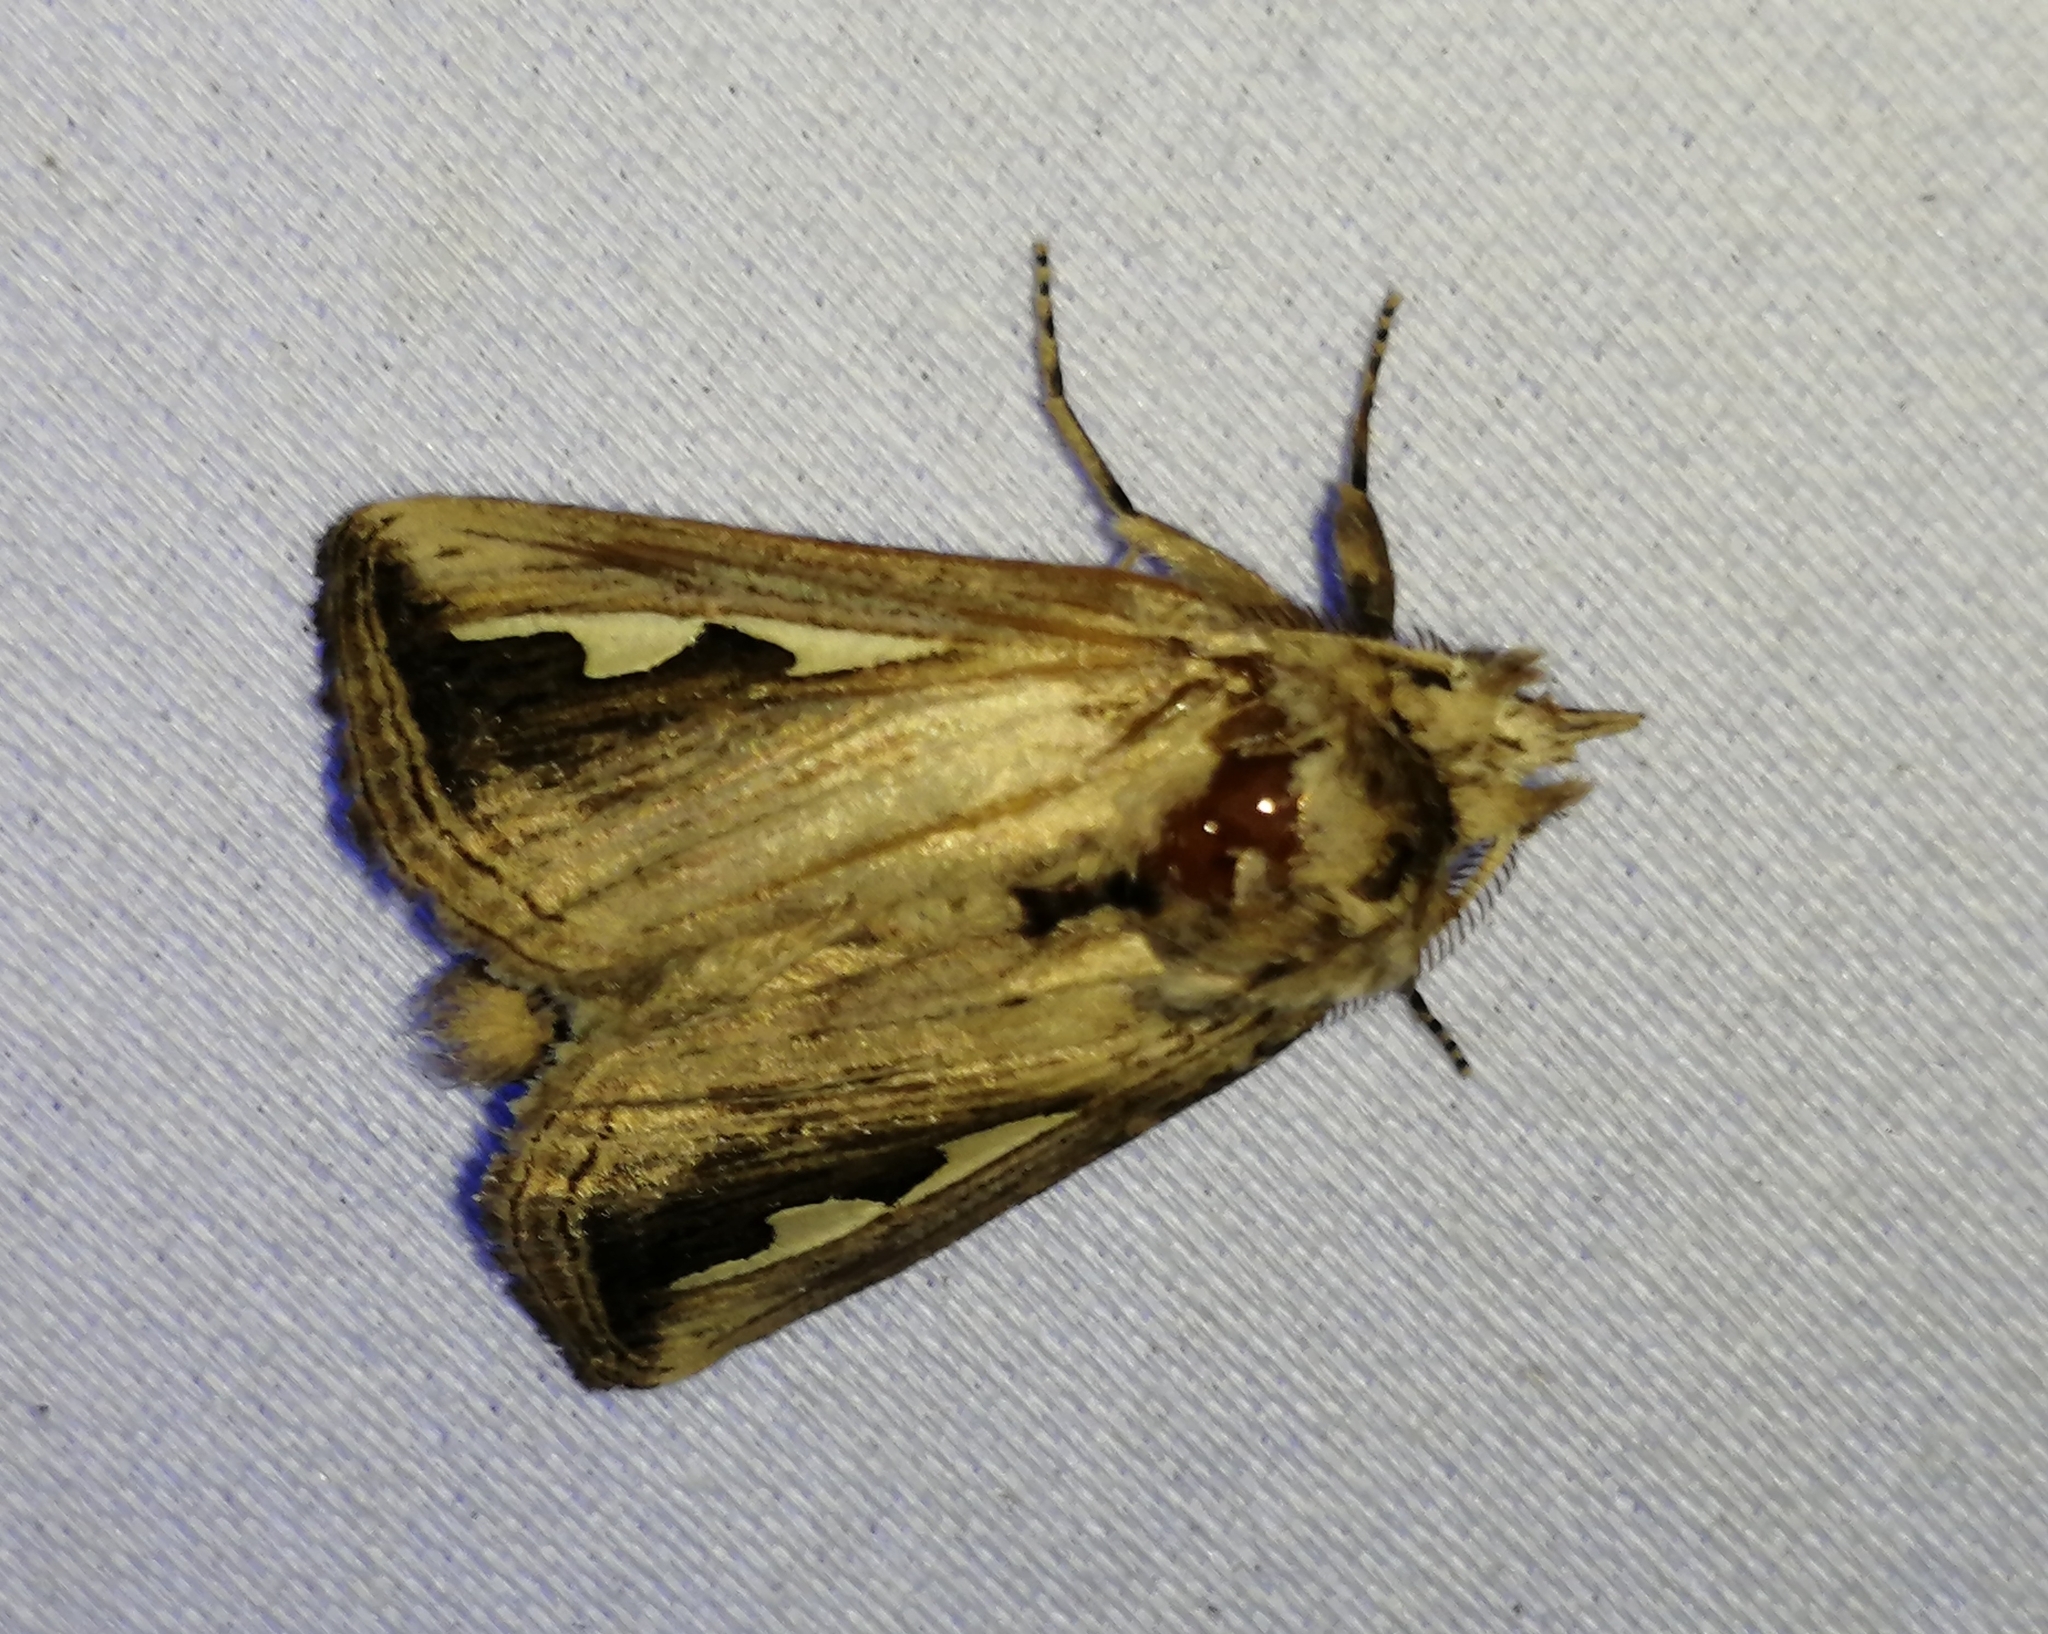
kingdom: Animalia
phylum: Arthropoda
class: Insecta
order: Lepidoptera
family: Notodontidae
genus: Didugua
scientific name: Didugua argentilinea
